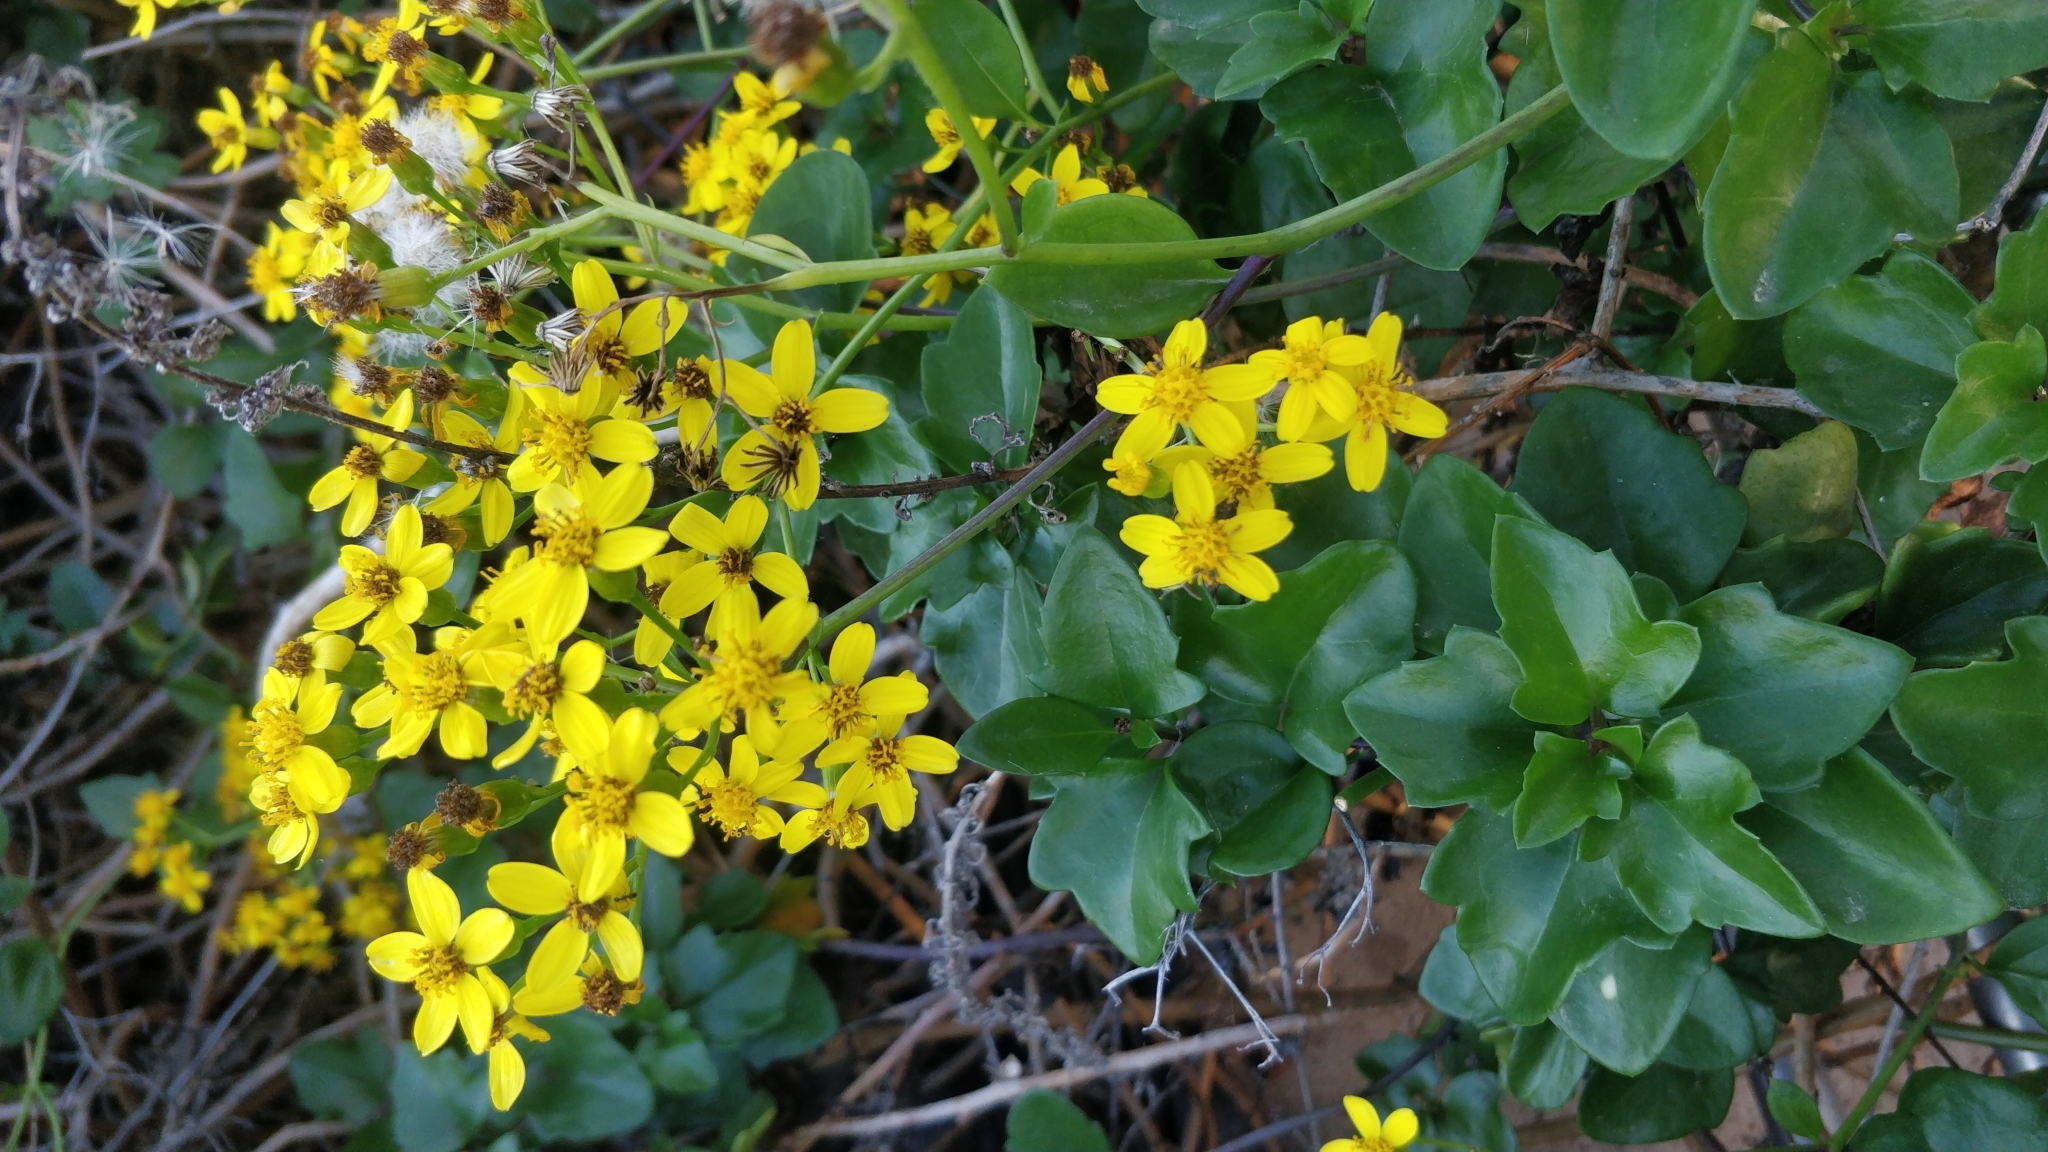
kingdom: Plantae
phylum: Tracheophyta
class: Magnoliopsida
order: Asterales
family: Asteraceae
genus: Senecio
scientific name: Senecio angulatus
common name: Climbing groundsel
